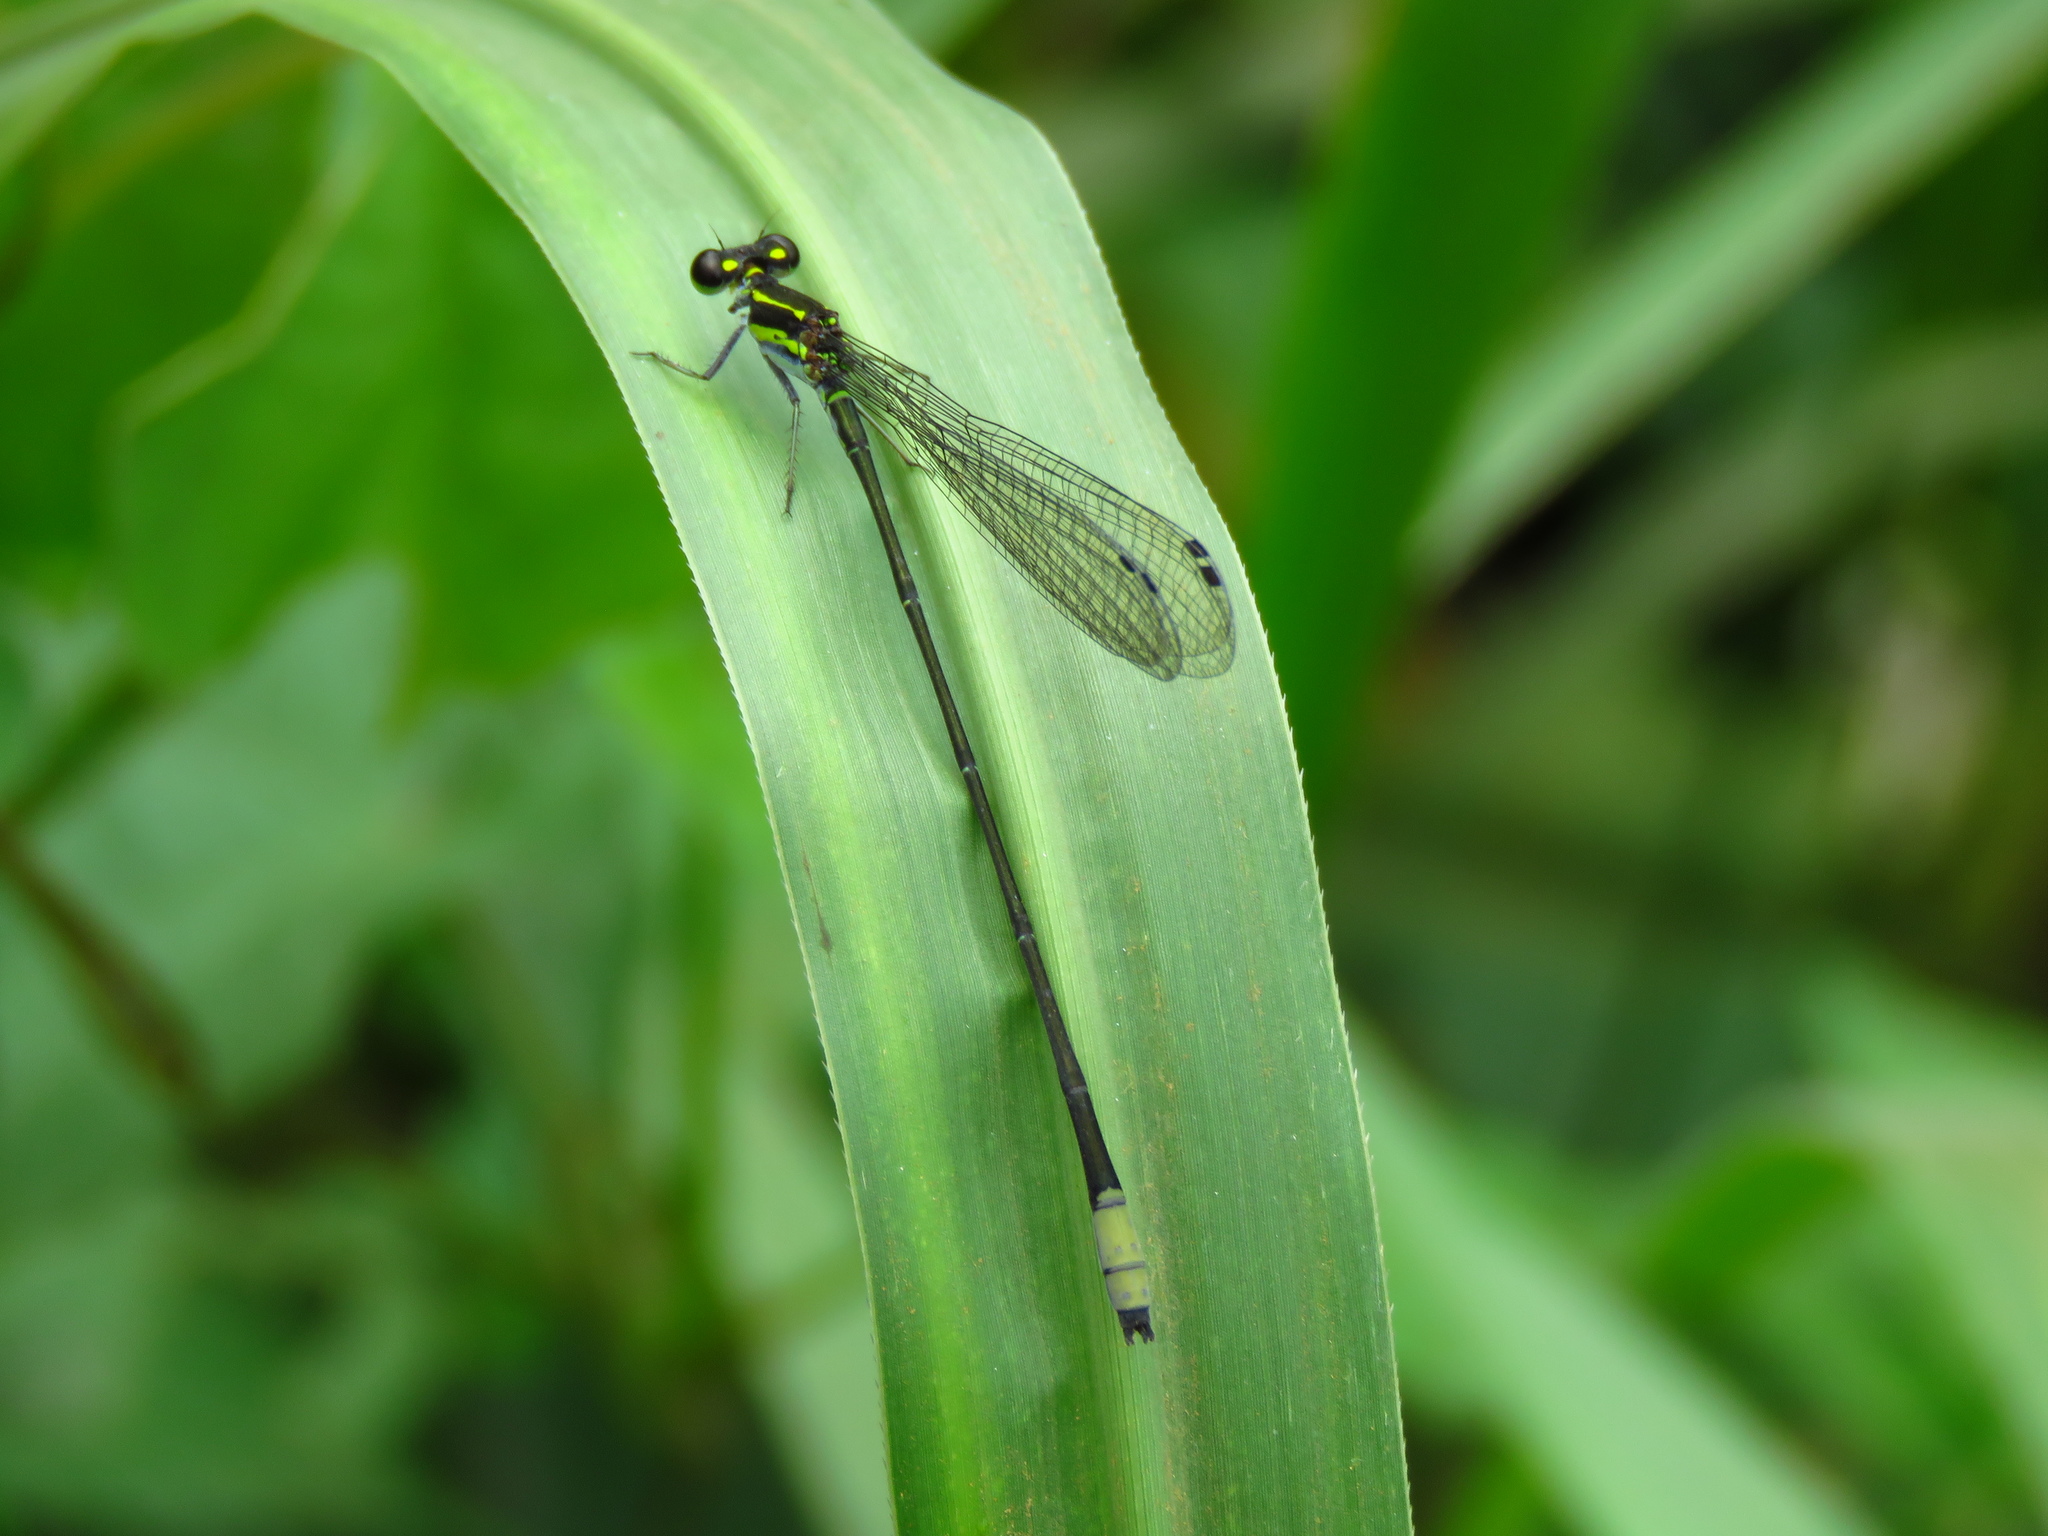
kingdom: Animalia
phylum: Arthropoda
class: Insecta
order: Odonata
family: Coenagrionidae
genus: Pseudagrion
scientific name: Pseudagrion melanicterum
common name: Farmbush sprite
